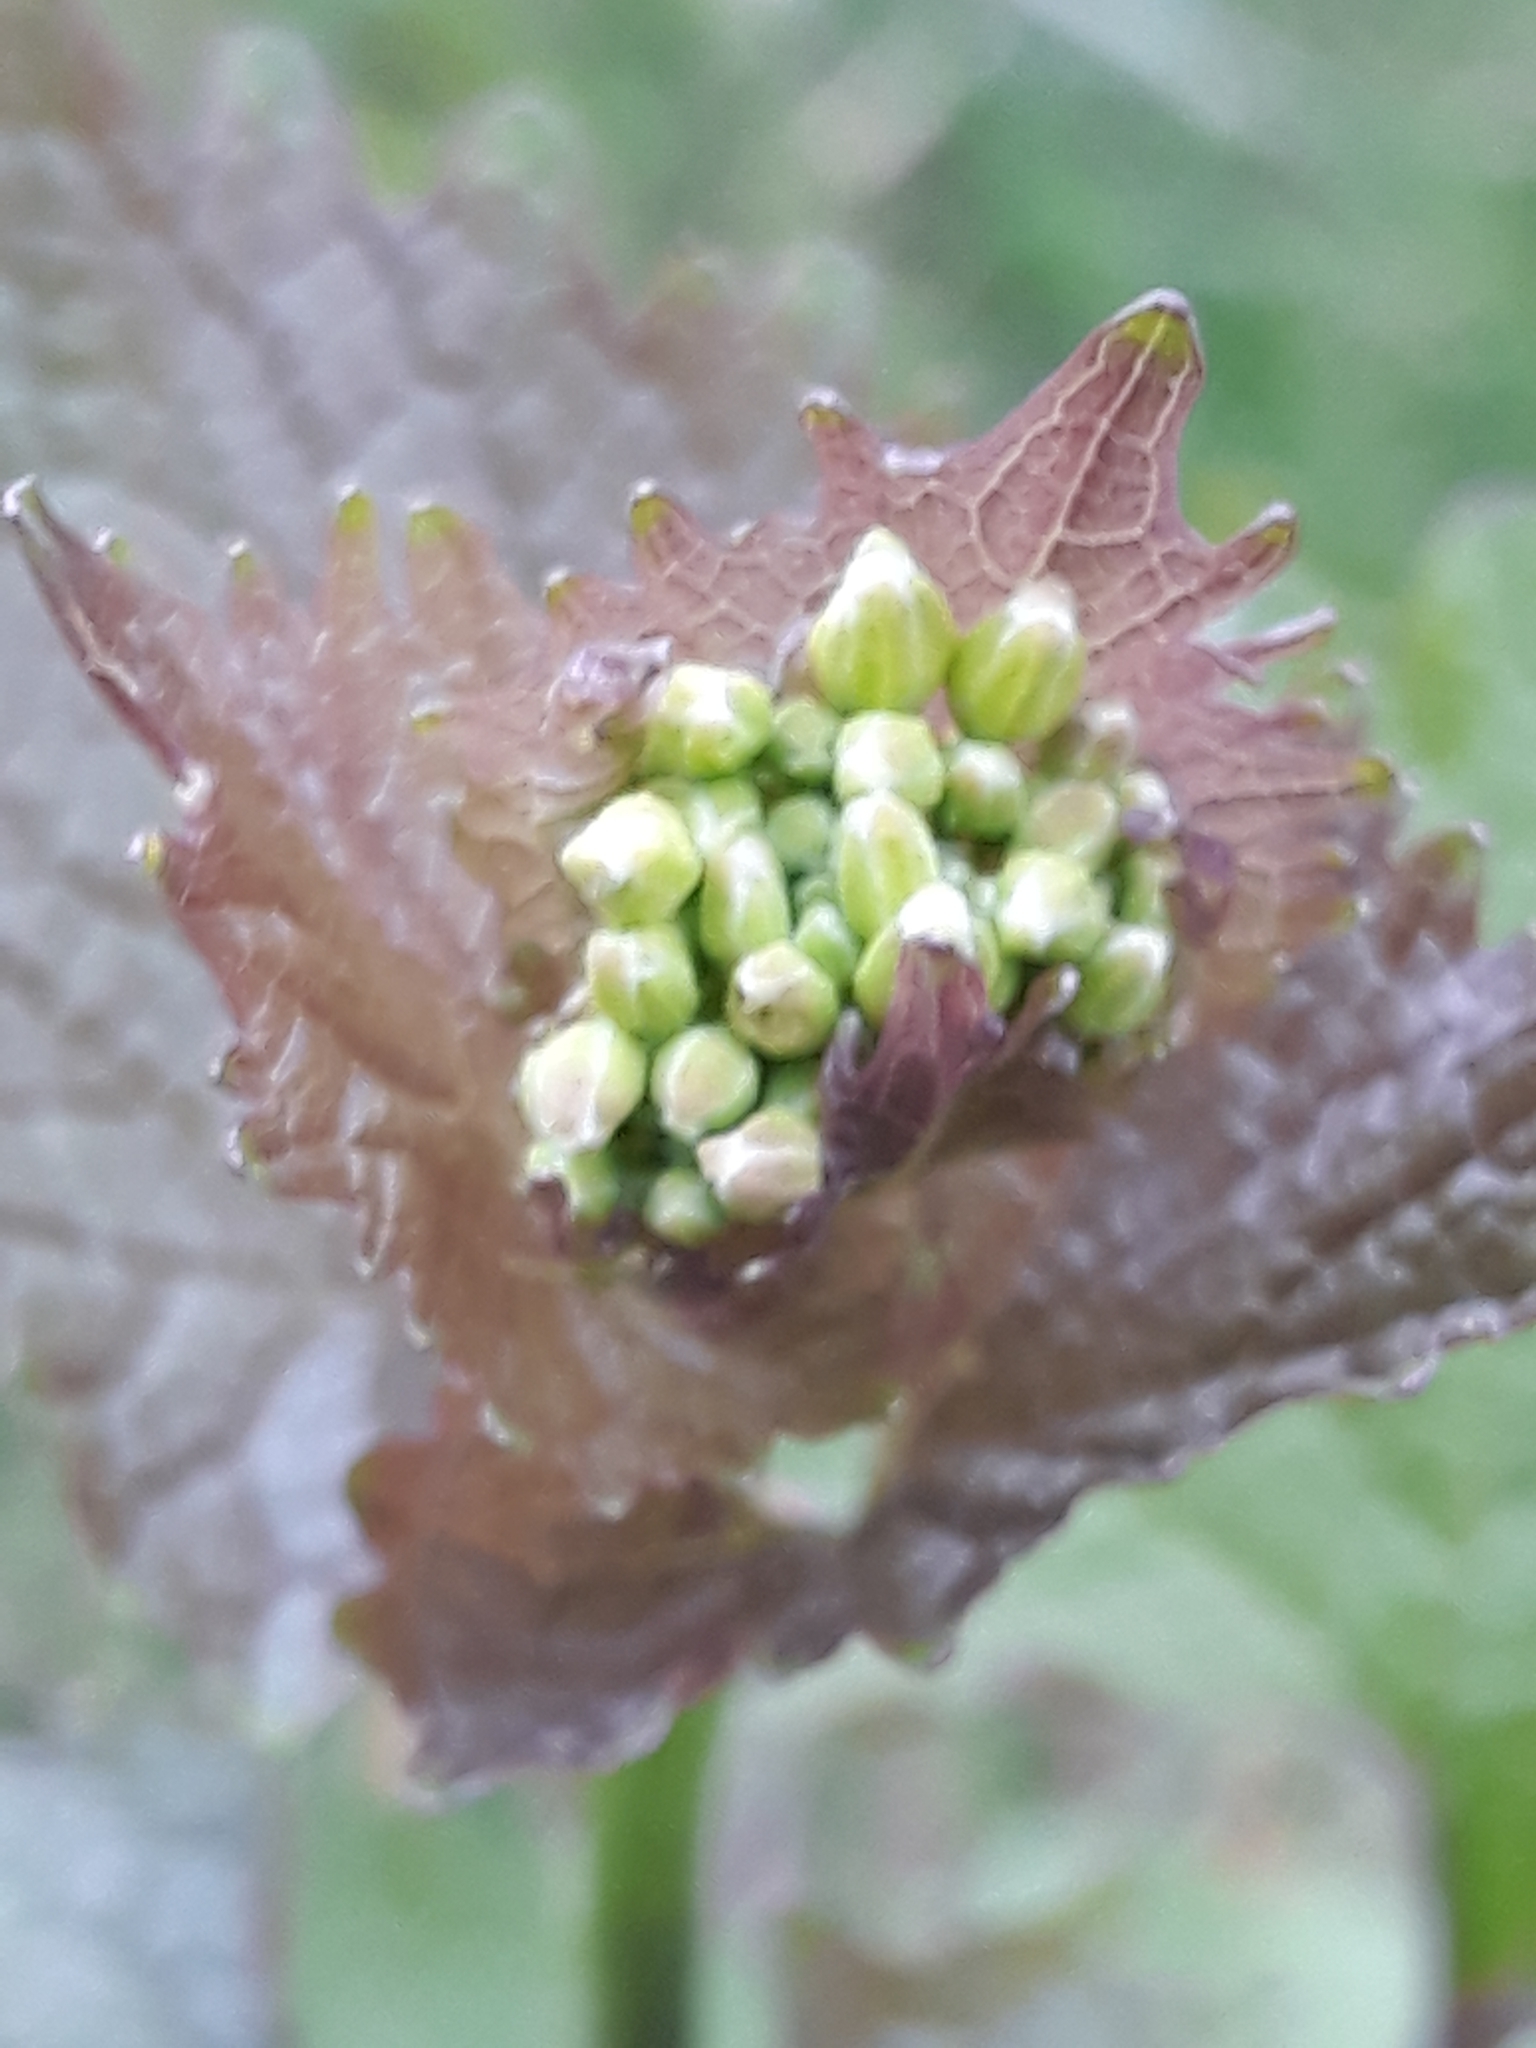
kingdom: Plantae
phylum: Tracheophyta
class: Magnoliopsida
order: Brassicales
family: Brassicaceae
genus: Alliaria
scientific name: Alliaria petiolata
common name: Garlic mustard
